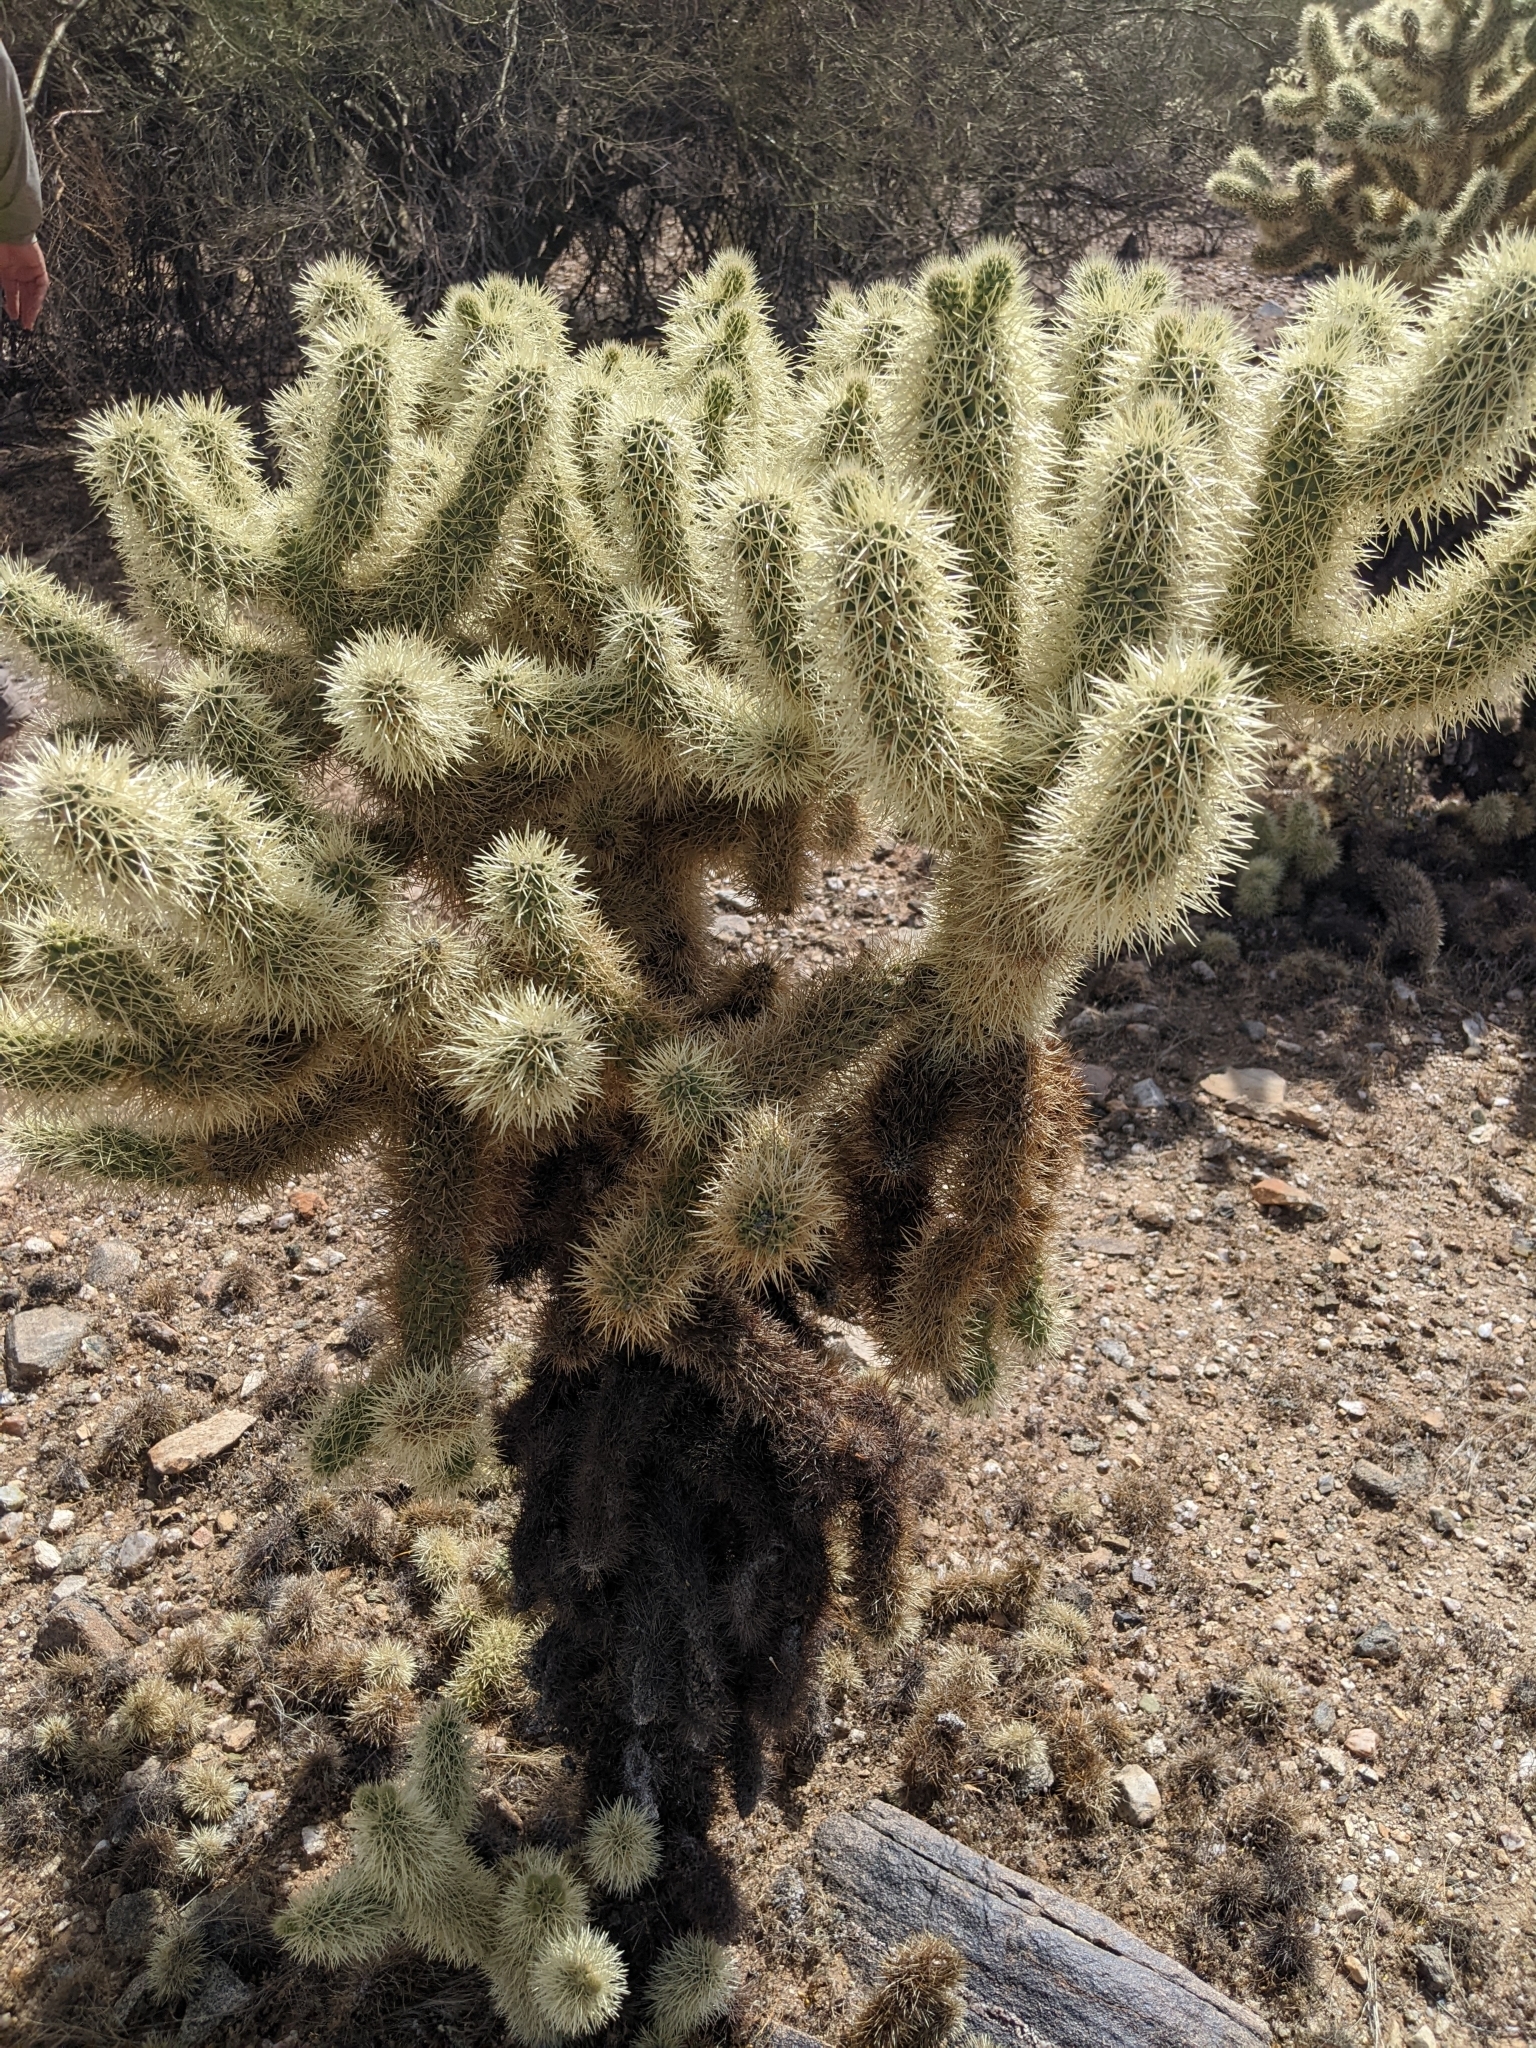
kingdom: Plantae
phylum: Tracheophyta
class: Magnoliopsida
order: Caryophyllales
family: Cactaceae
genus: Cylindropuntia
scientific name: Cylindropuntia fosbergii
